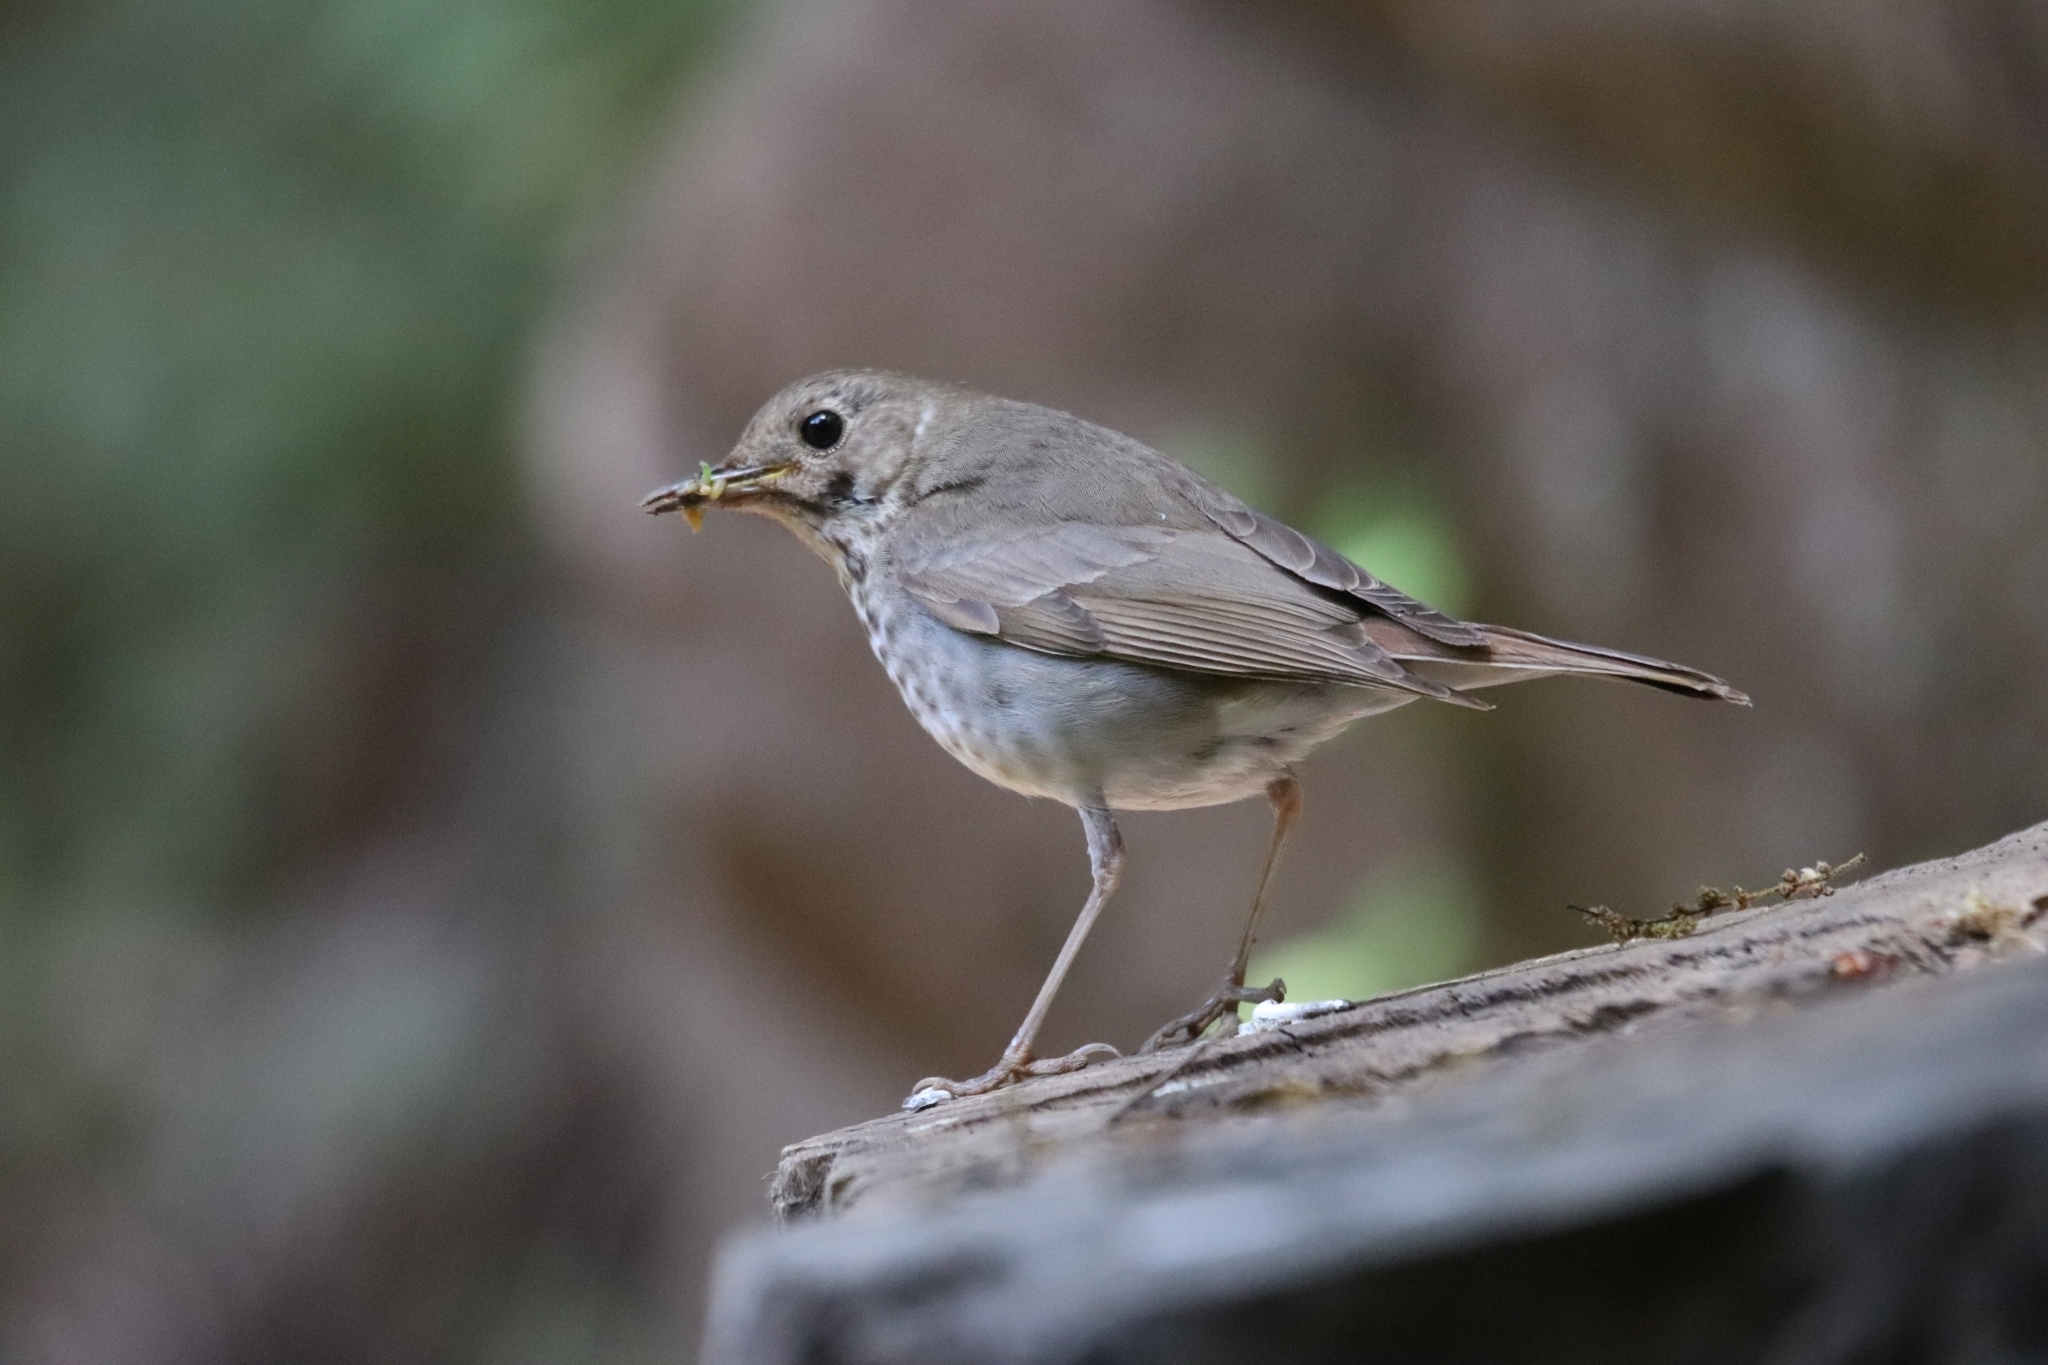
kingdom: Animalia
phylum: Chordata
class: Aves
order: Passeriformes
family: Turdidae
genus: Catharus
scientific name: Catharus guttatus
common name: Hermit thrush
